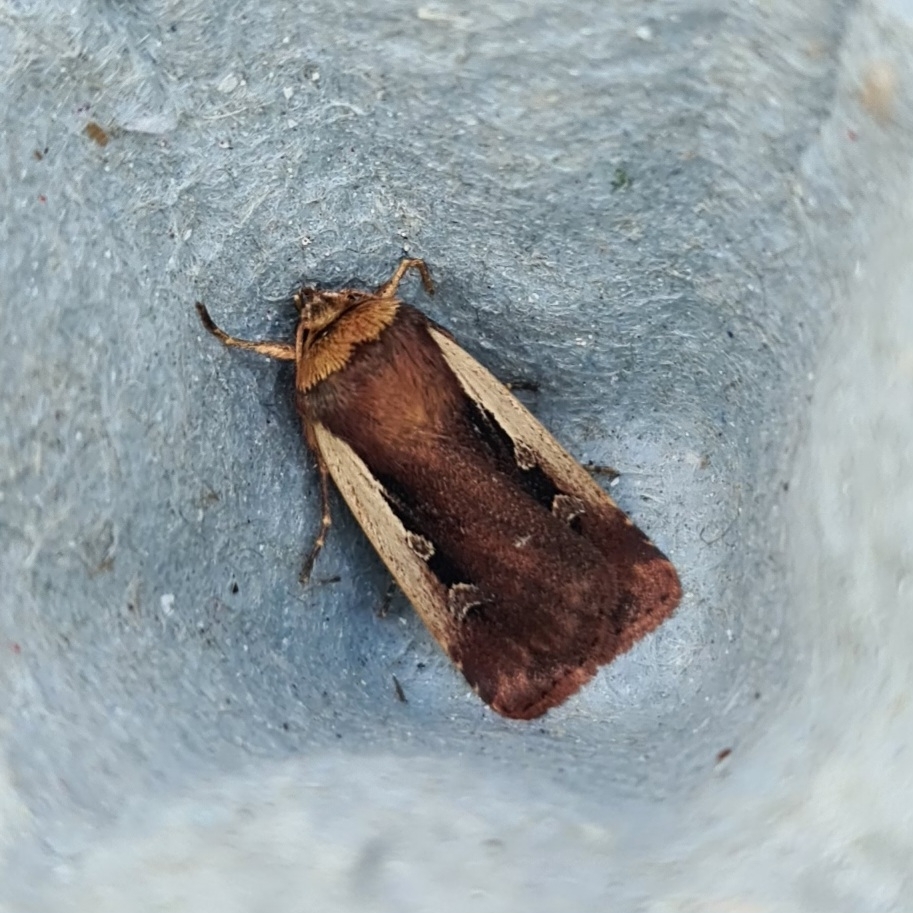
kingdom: Animalia
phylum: Arthropoda
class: Insecta
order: Lepidoptera
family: Noctuidae
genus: Ochropleura
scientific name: Ochropleura plecta
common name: Flame shoulder
